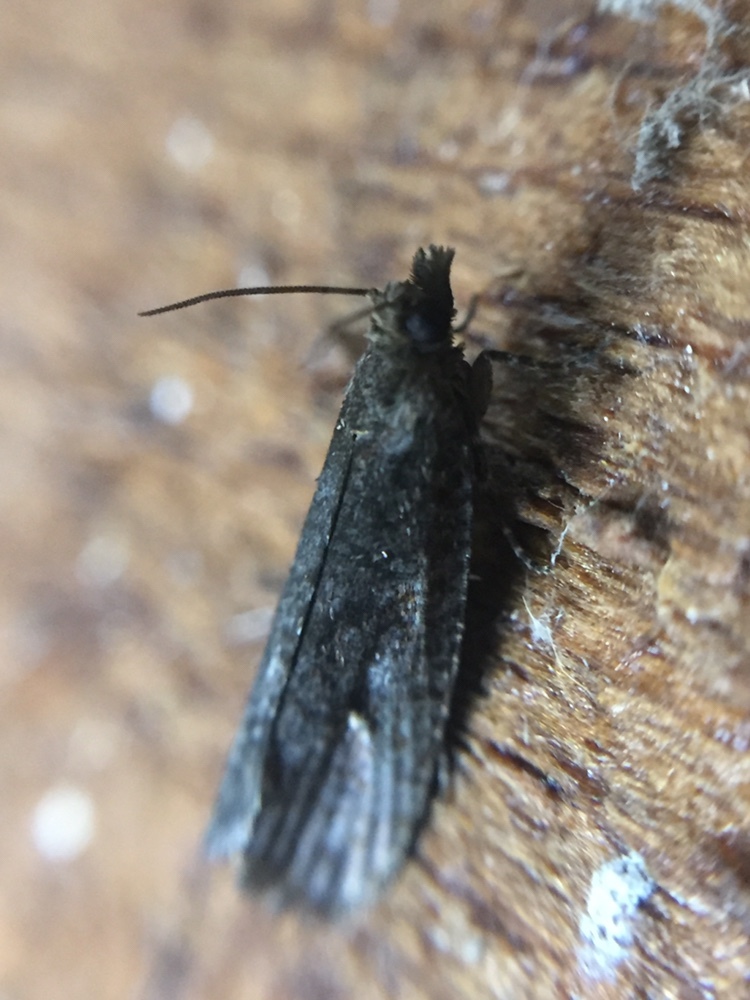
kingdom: Animalia
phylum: Arthropoda
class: Insecta
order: Lepidoptera
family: Tortricidae
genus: Cryptaspasma
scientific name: Cryptaspasma querula
